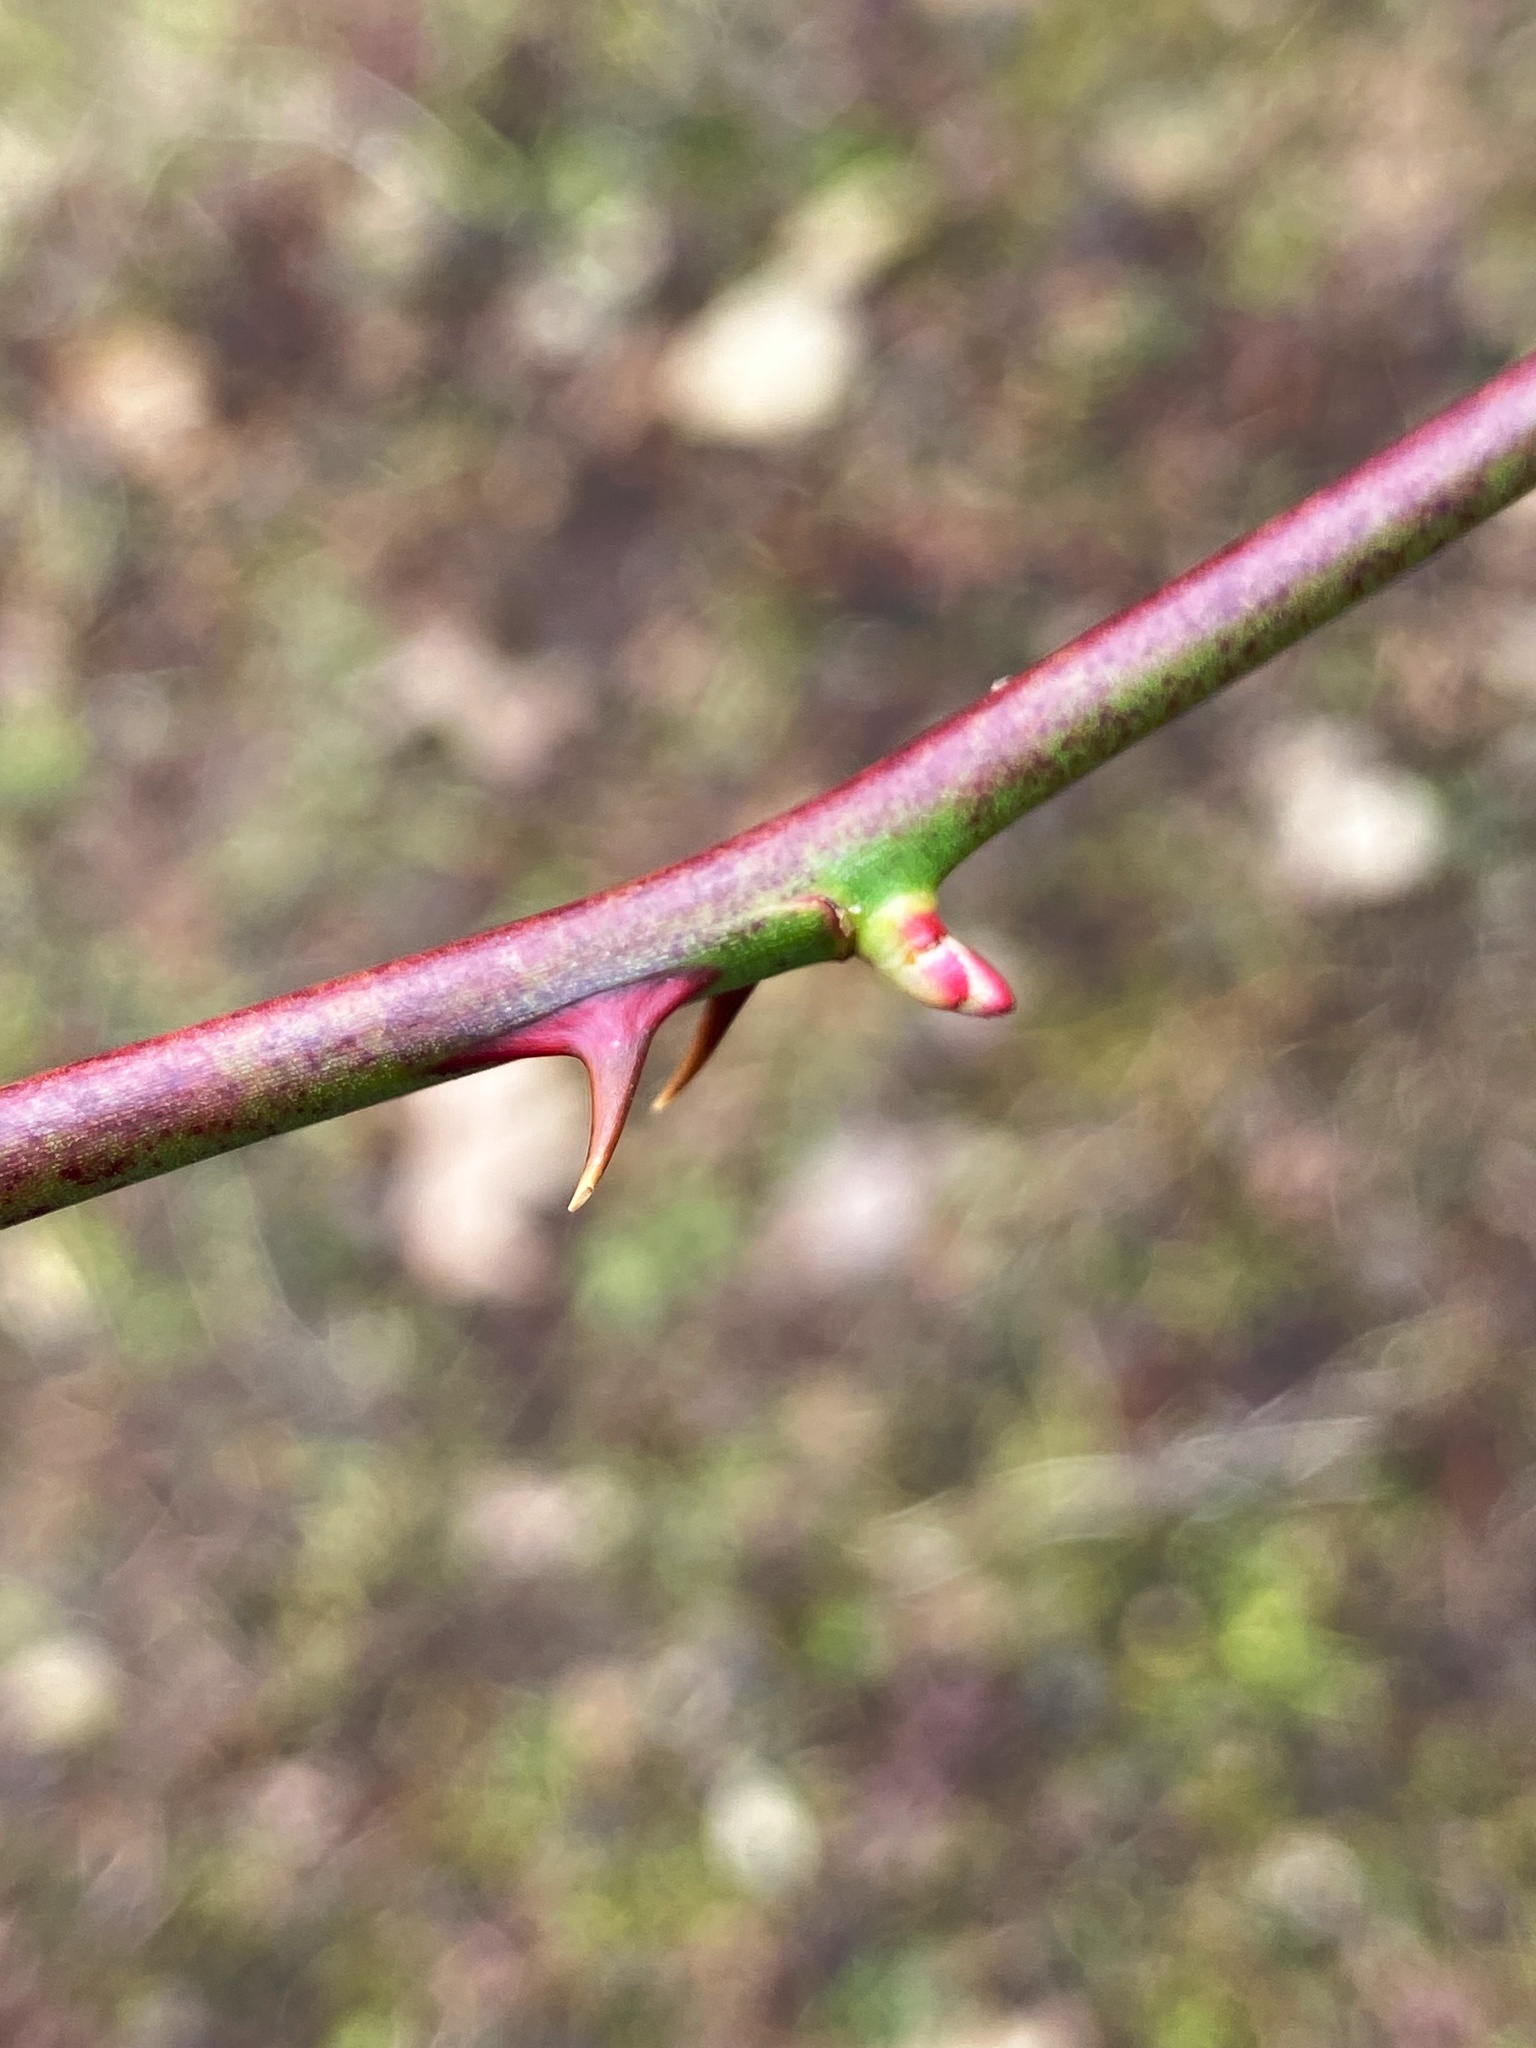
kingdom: Plantae
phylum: Tracheophyta
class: Magnoliopsida
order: Rosales
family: Rosaceae
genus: Rosa
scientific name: Rosa multiflora
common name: Multiflora rose
